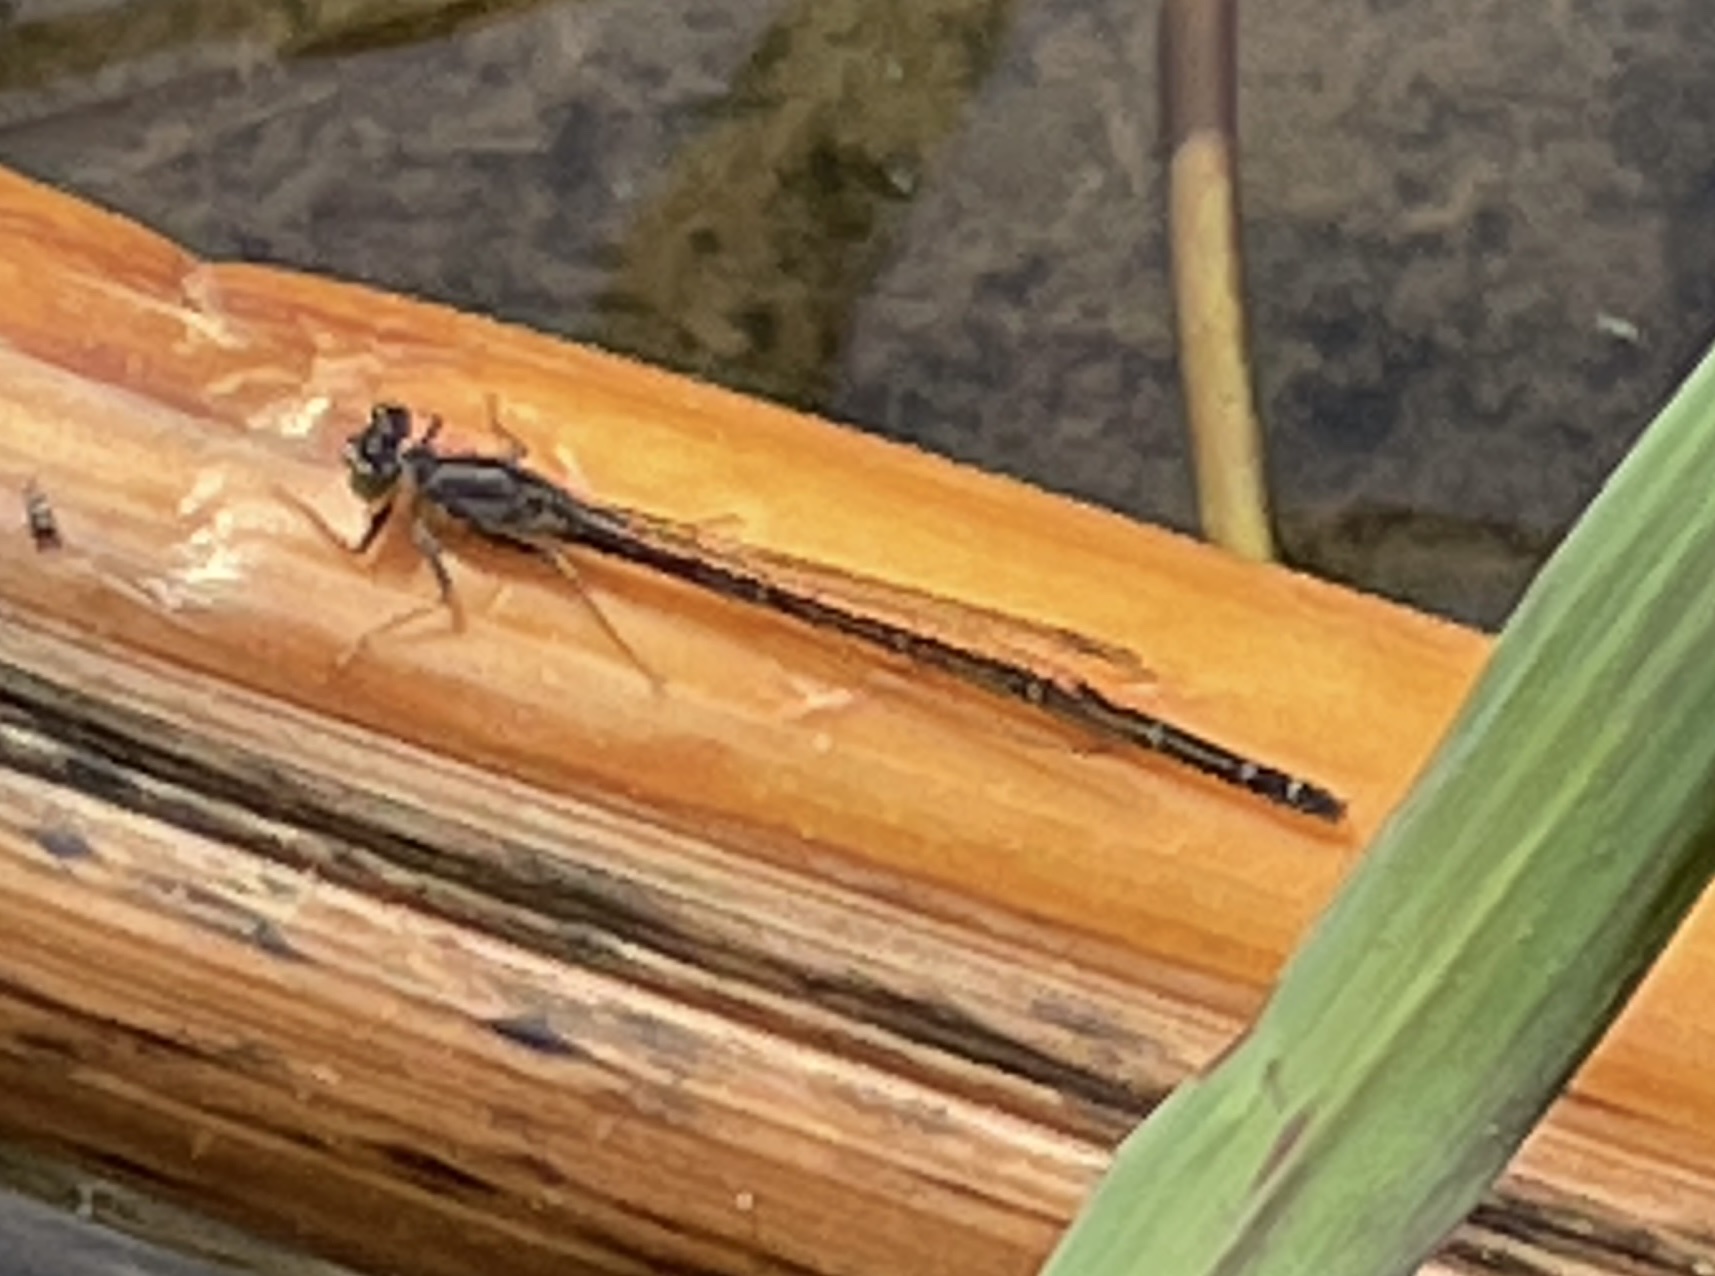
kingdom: Animalia
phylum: Arthropoda
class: Insecta
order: Odonata
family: Coenagrionidae
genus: Ischnura
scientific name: Ischnura cervula
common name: Pacific forktail
